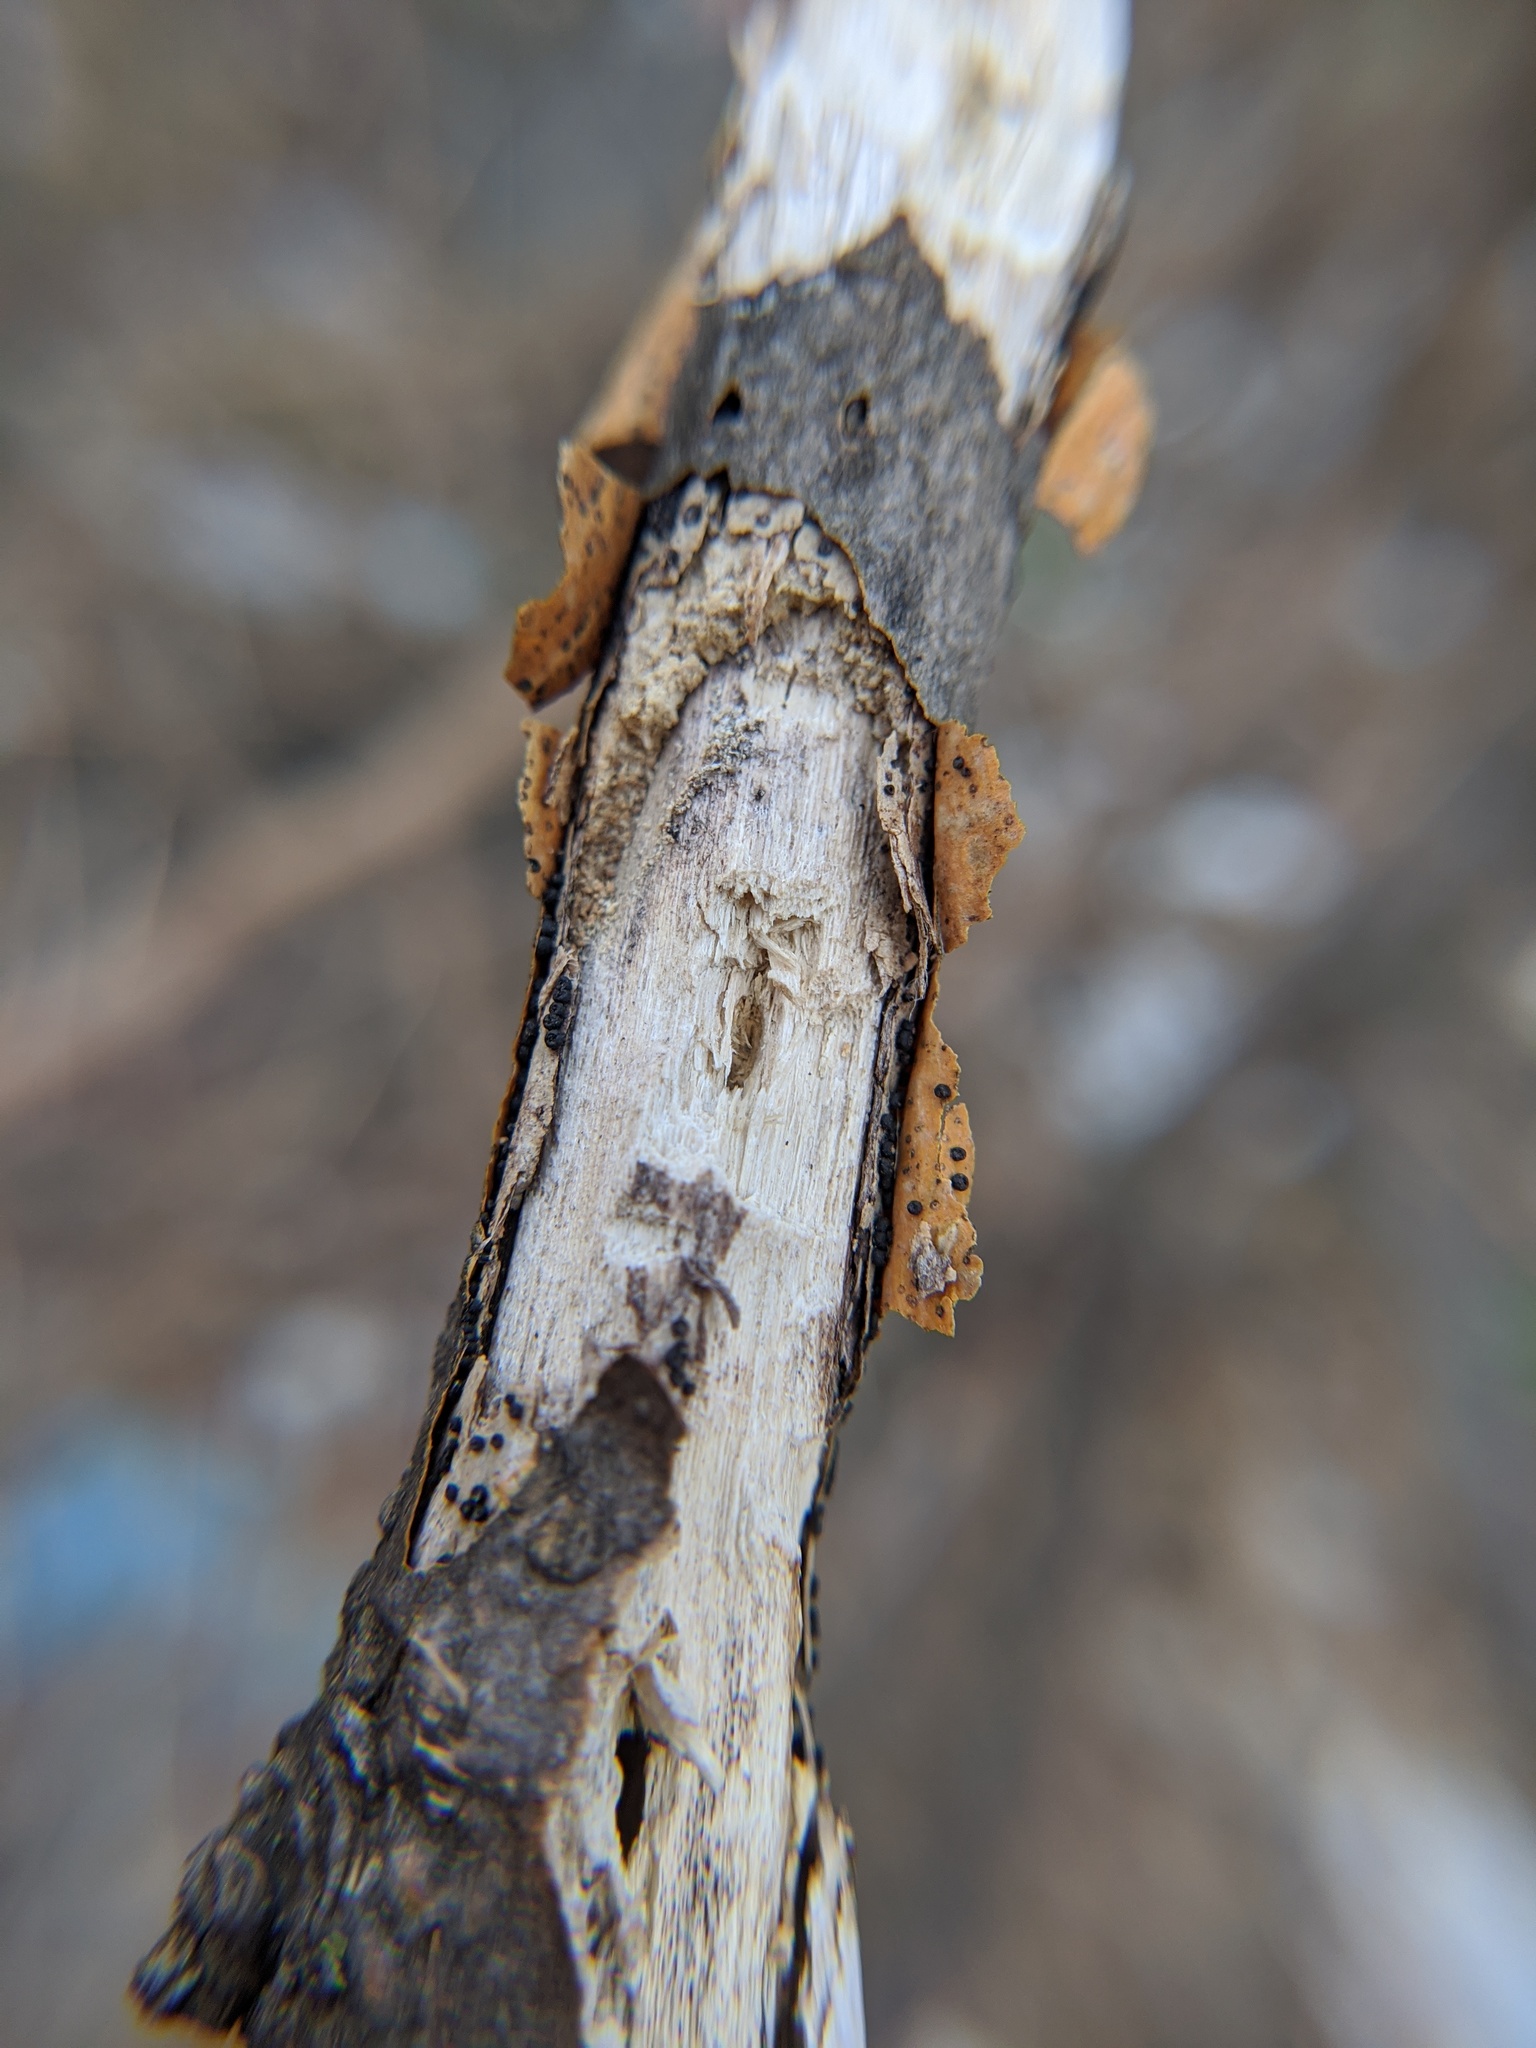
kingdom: Animalia
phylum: Chordata
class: Mammalia
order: Artiodactyla
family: Cervidae
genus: Odocoileus
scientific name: Odocoileus virginianus
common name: White-tailed deer
